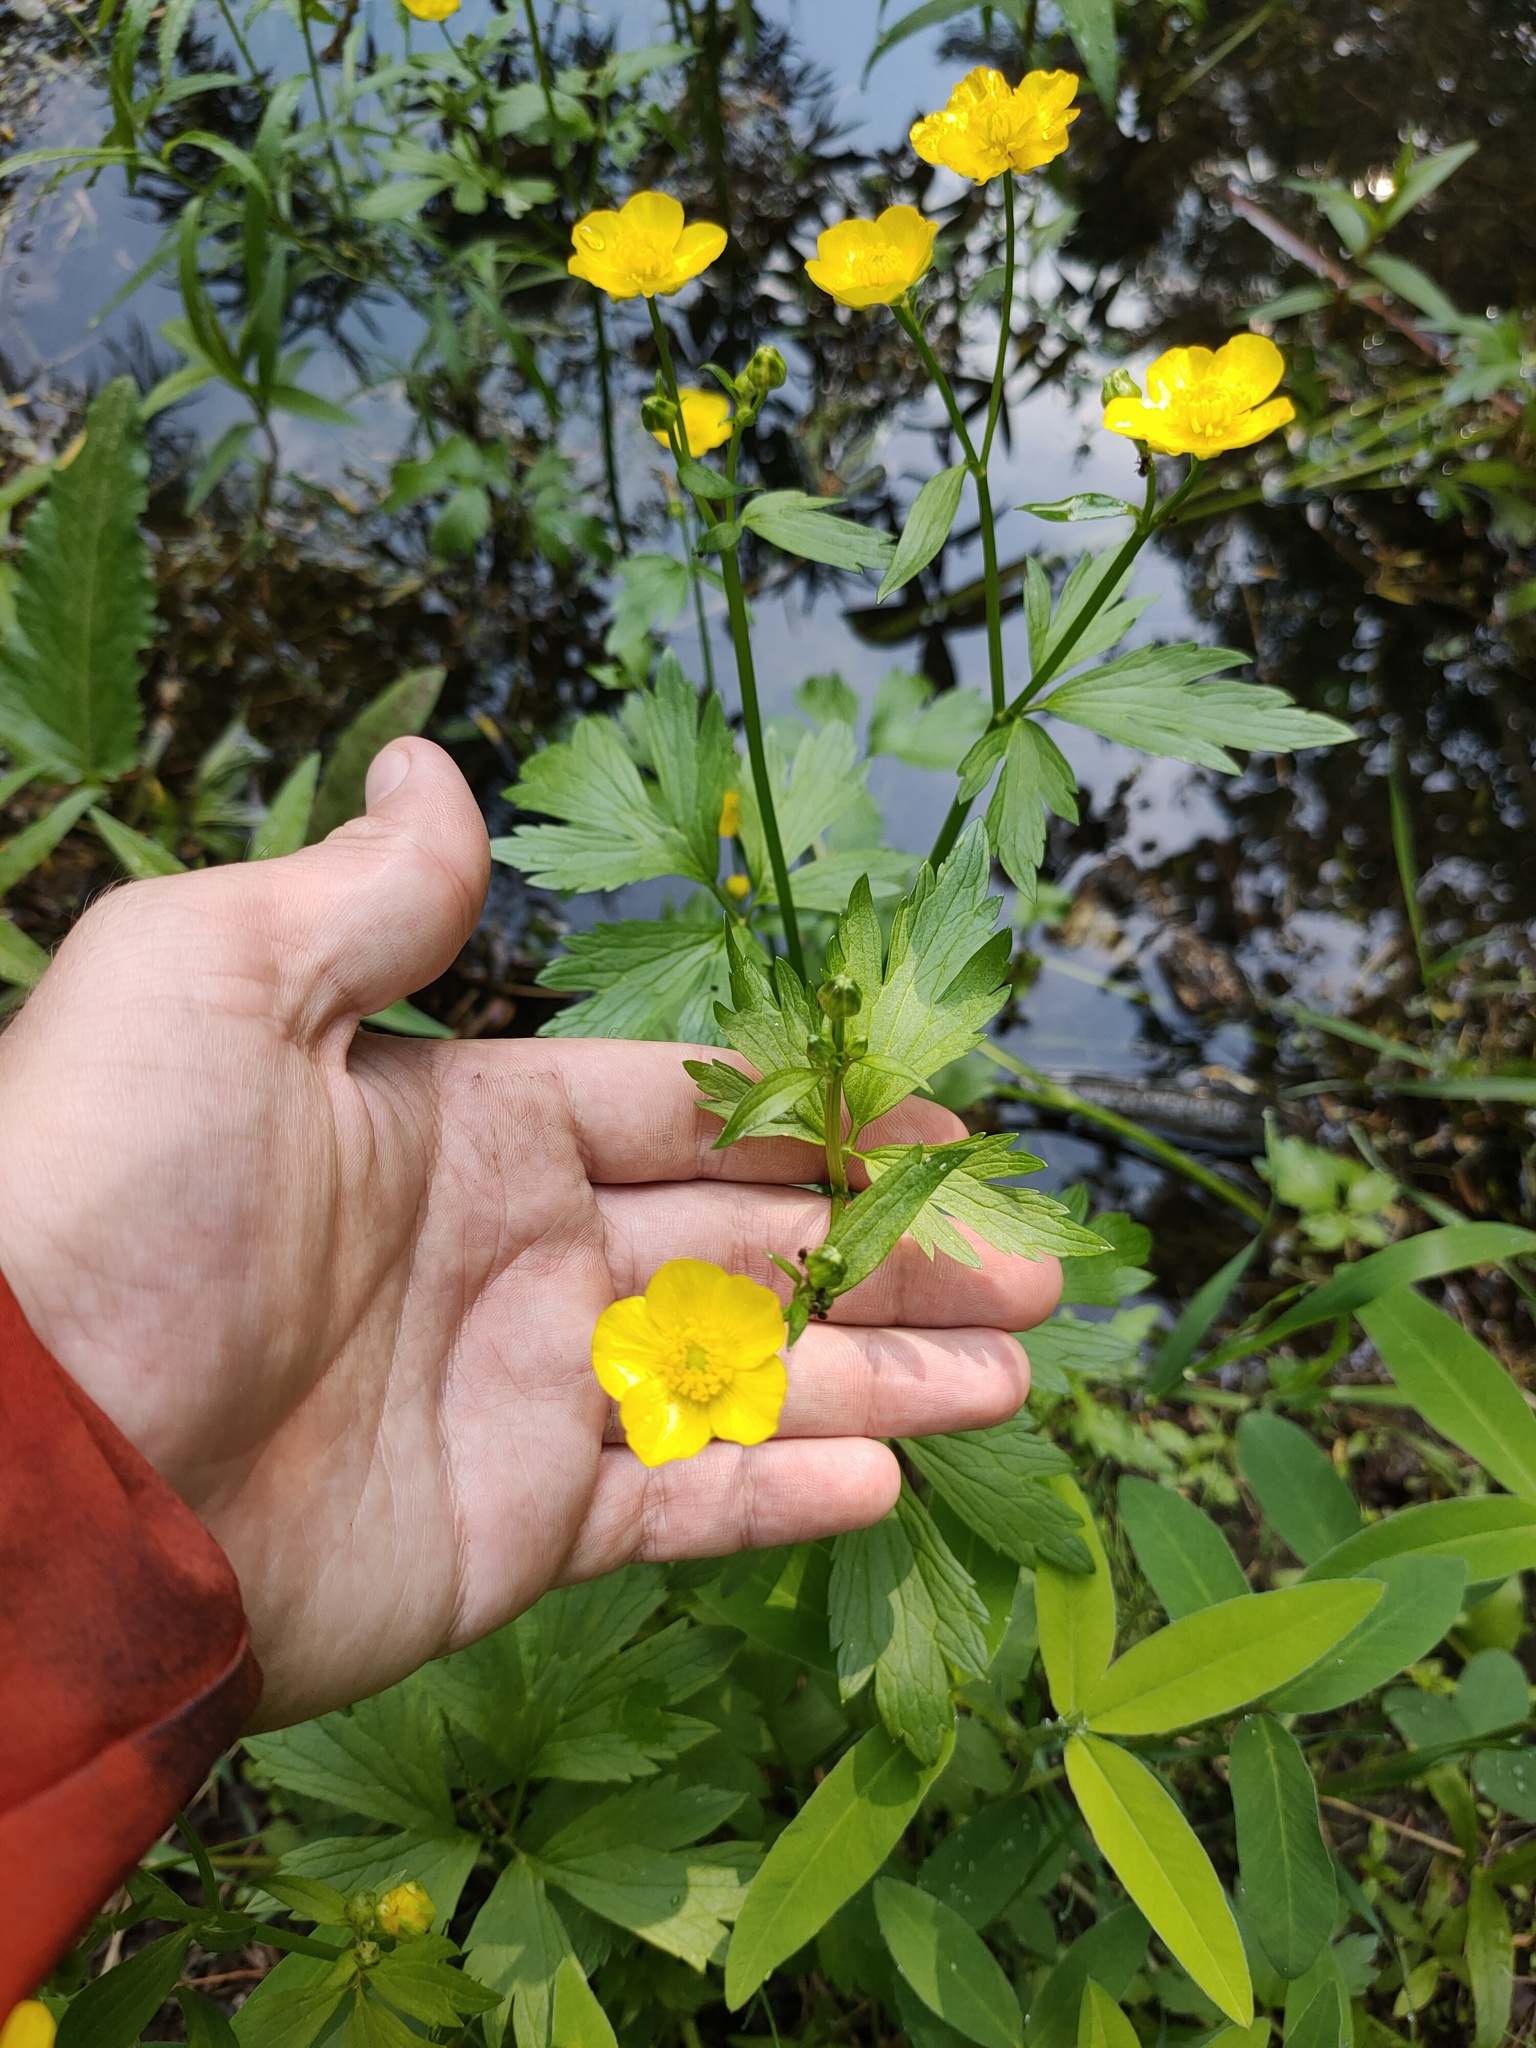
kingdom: Plantae
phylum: Tracheophyta
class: Magnoliopsida
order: Ranunculales
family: Ranunculaceae
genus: Ranunculus
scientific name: Ranunculus repens
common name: Creeping buttercup
